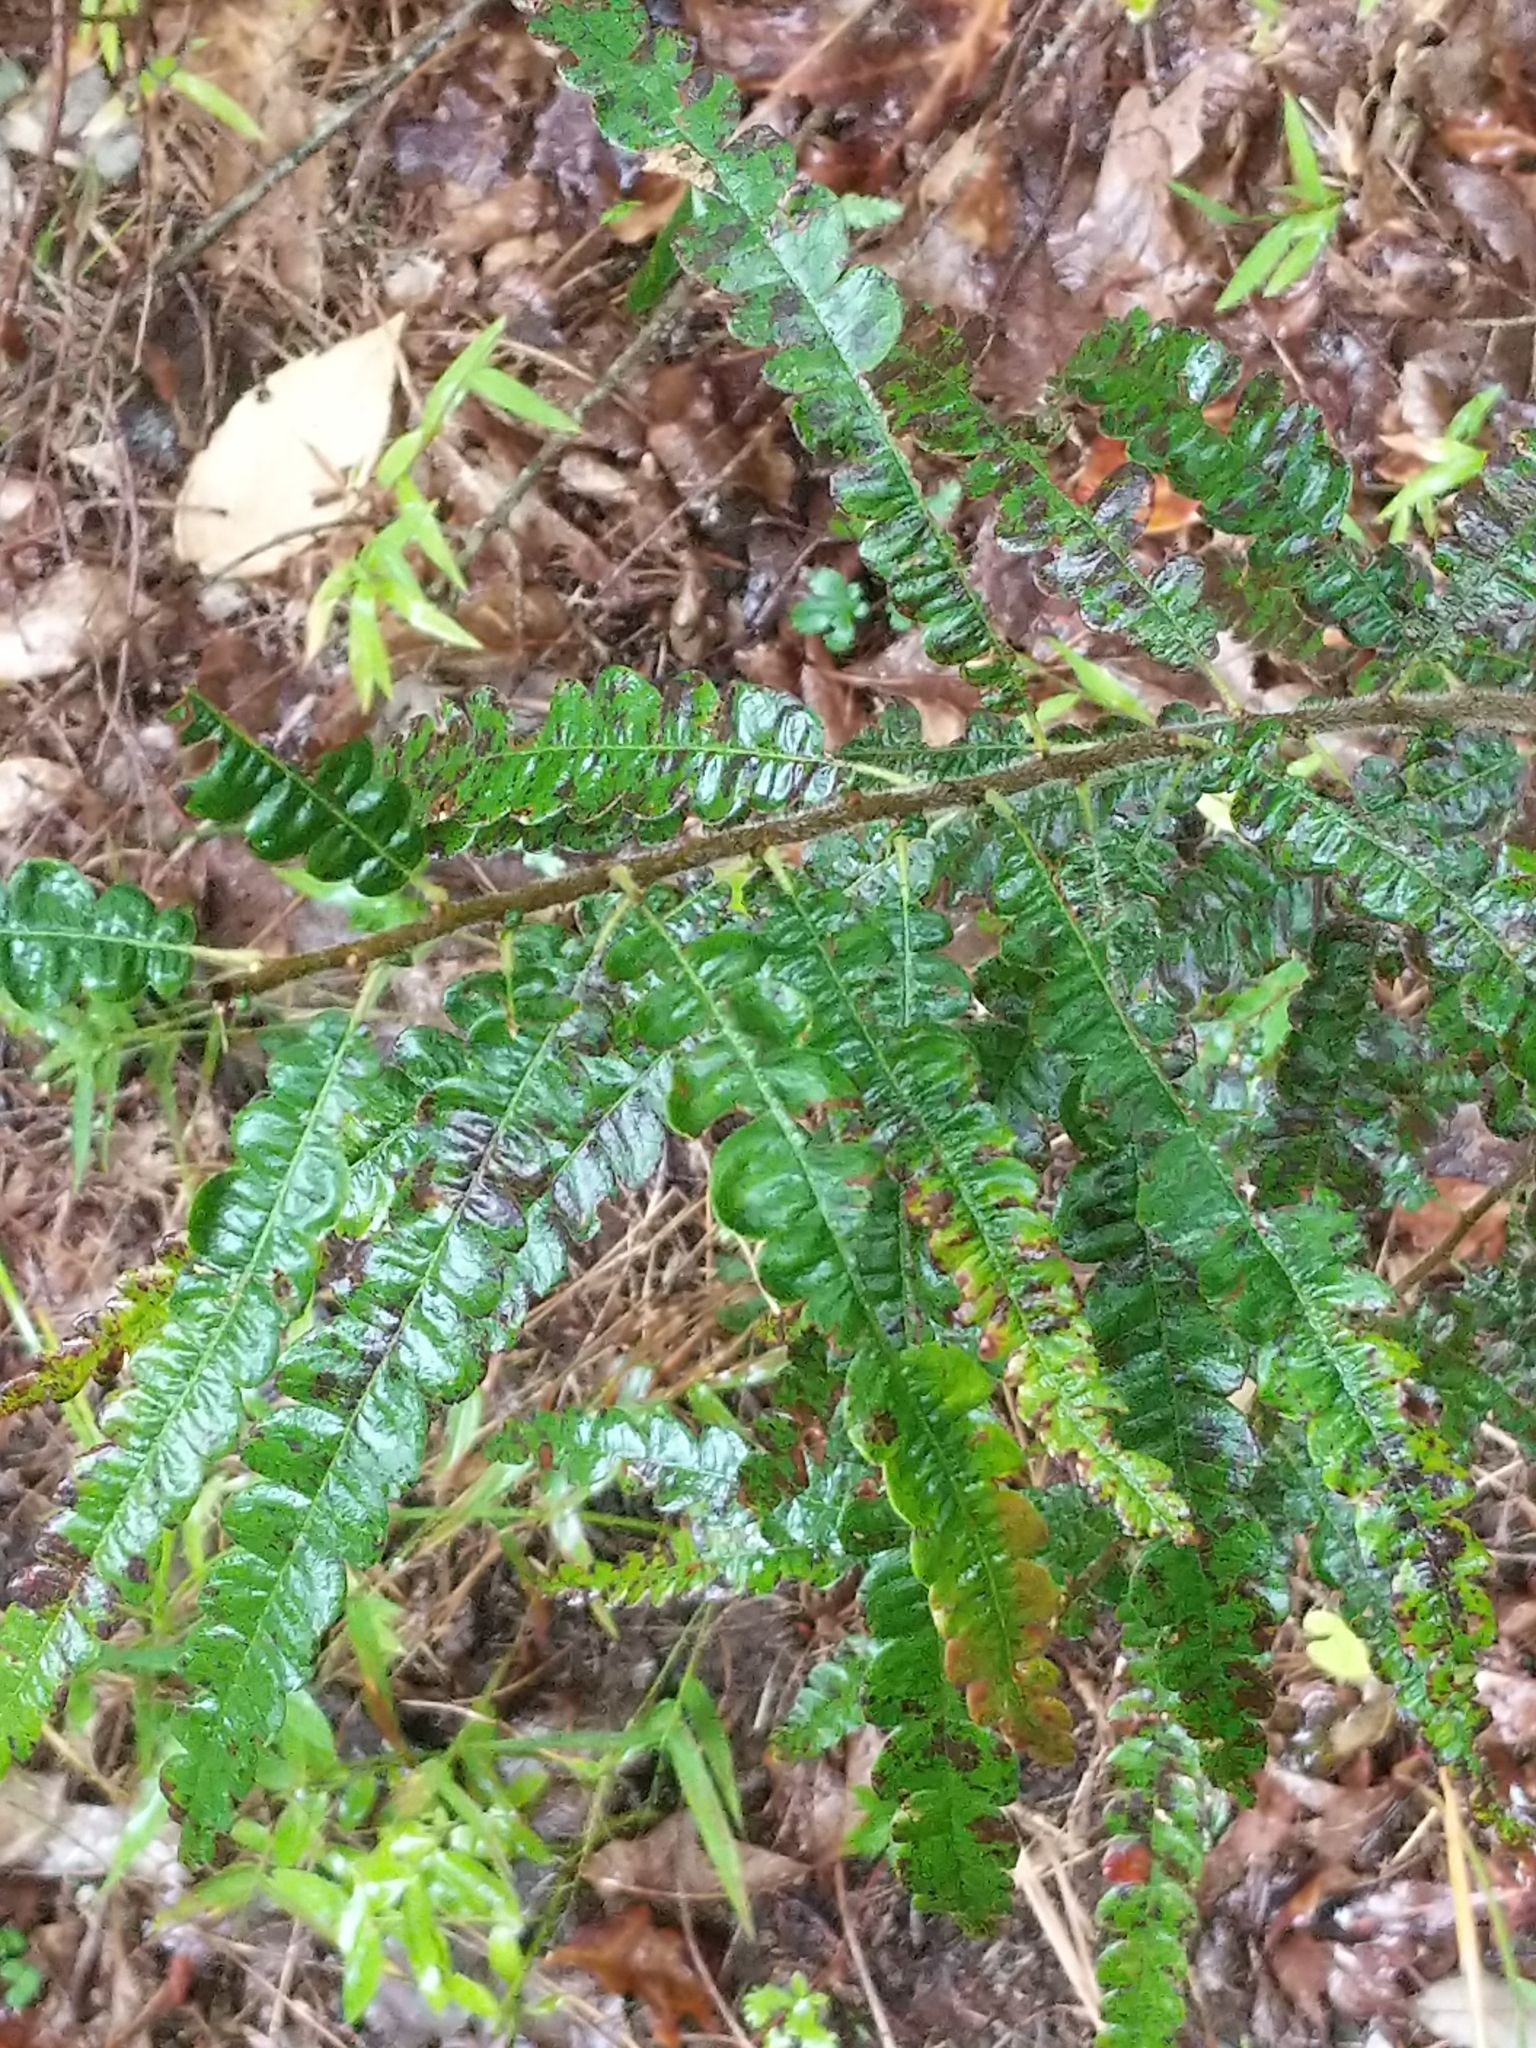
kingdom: Plantae
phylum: Tracheophyta
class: Magnoliopsida
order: Fagales
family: Myricaceae
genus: Comptonia
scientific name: Comptonia peregrina
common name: Sweet-fern
